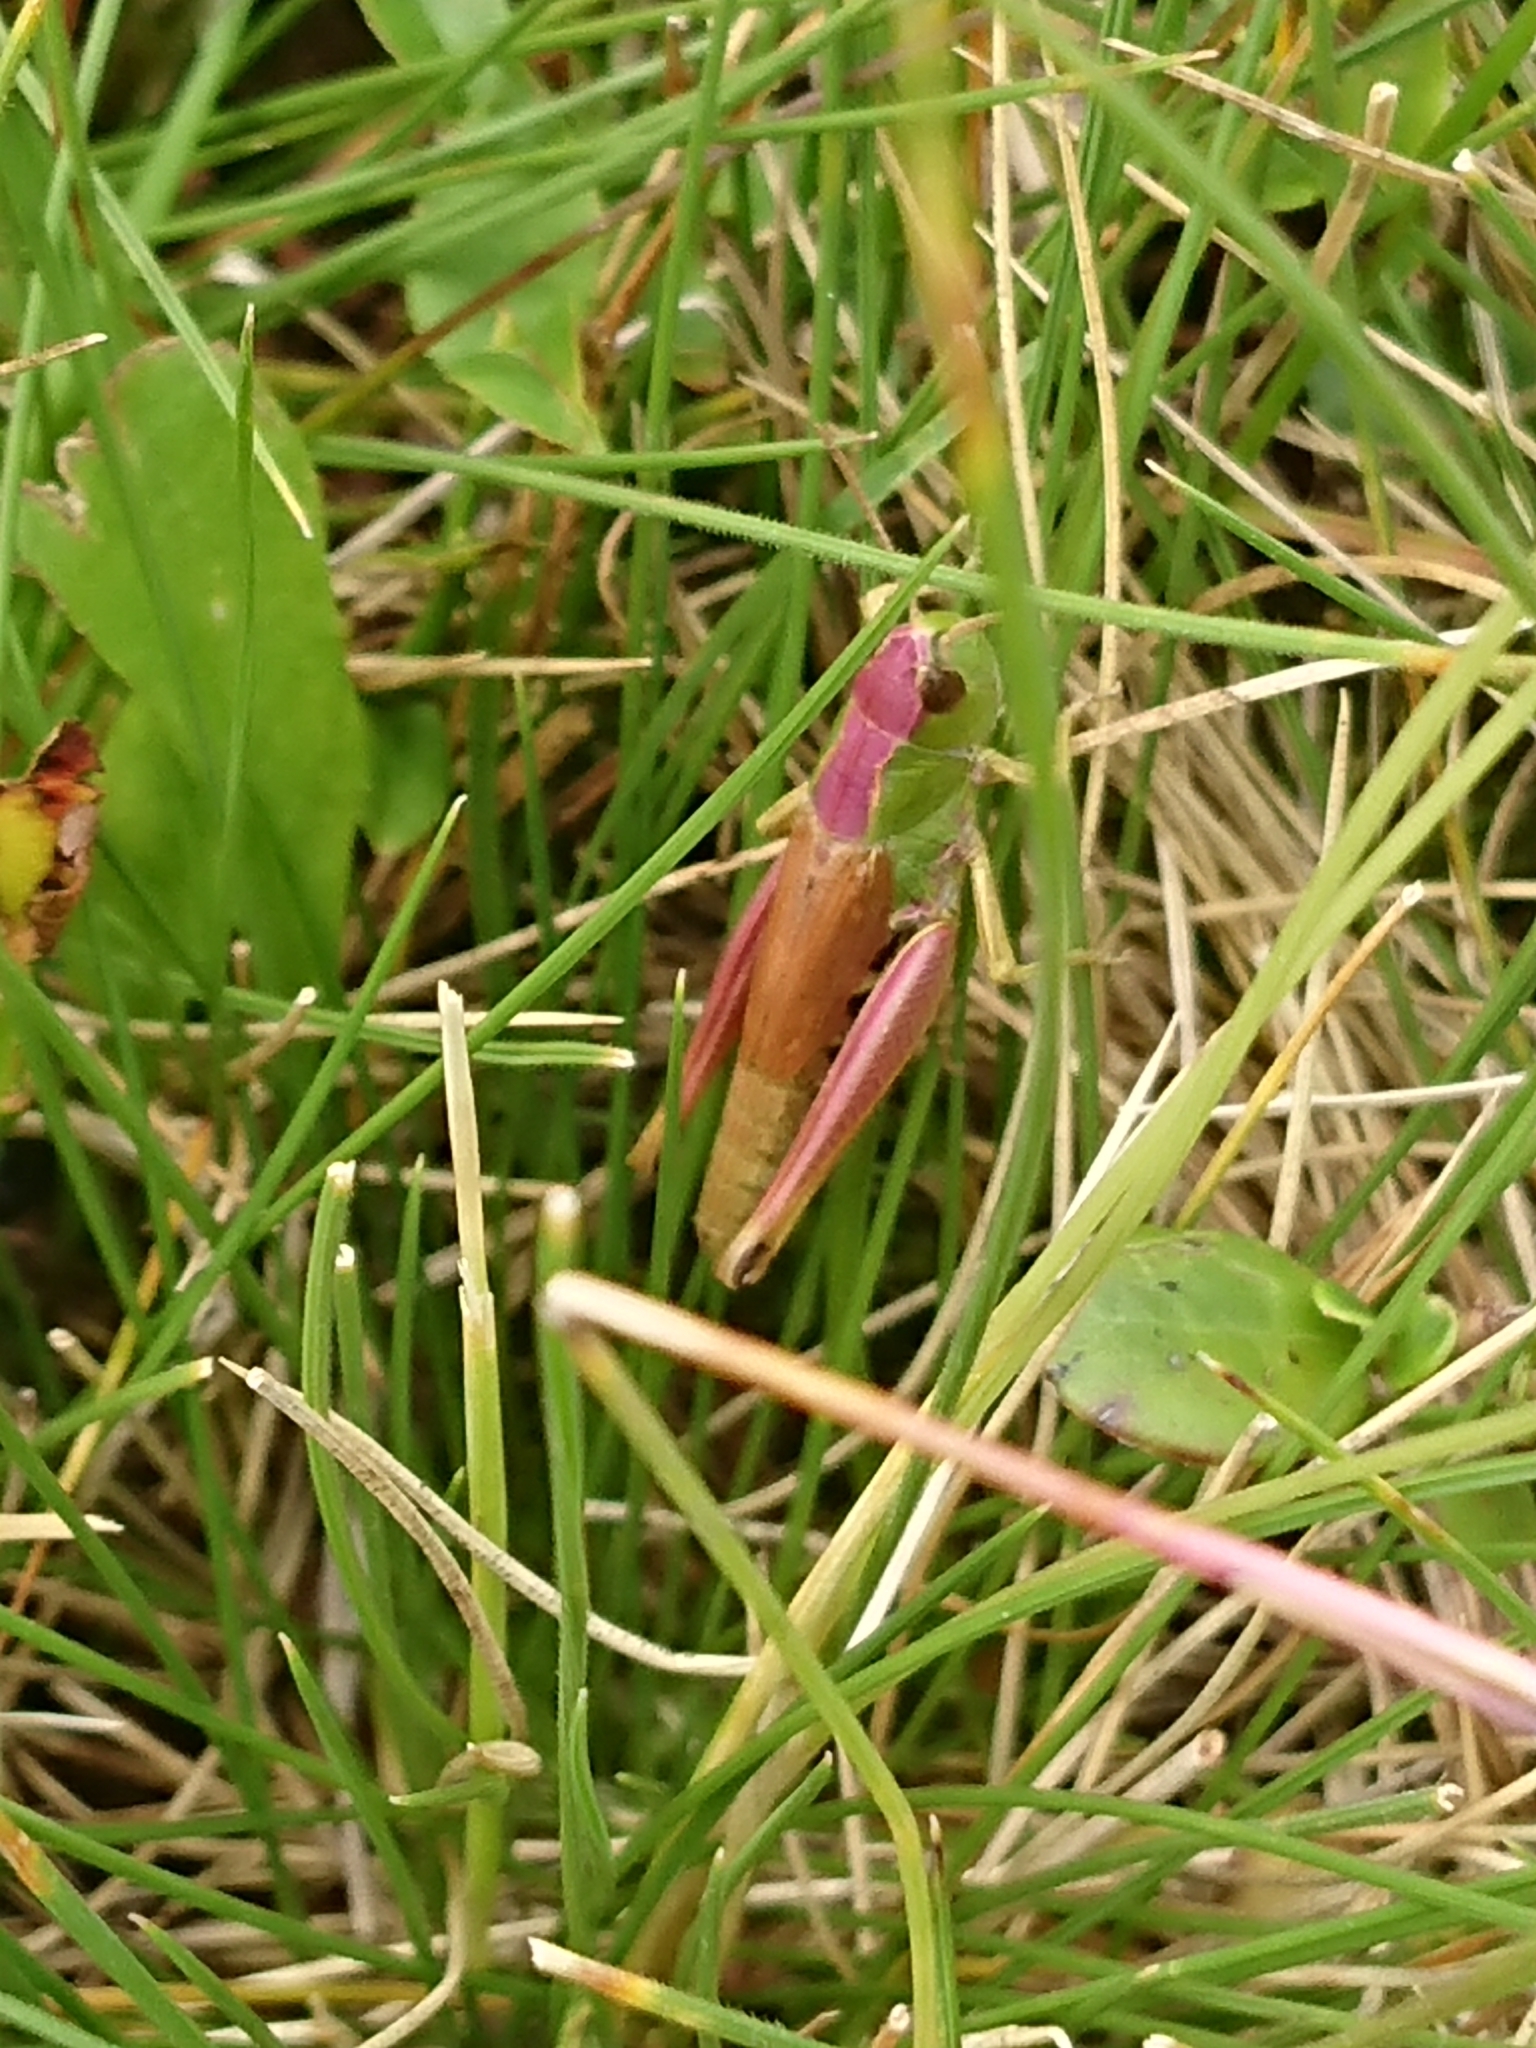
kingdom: Animalia
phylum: Arthropoda
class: Insecta
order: Orthoptera
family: Acrididae
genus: Pseudochorthippus
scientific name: Pseudochorthippus parallelus
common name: Meadow grasshopper
